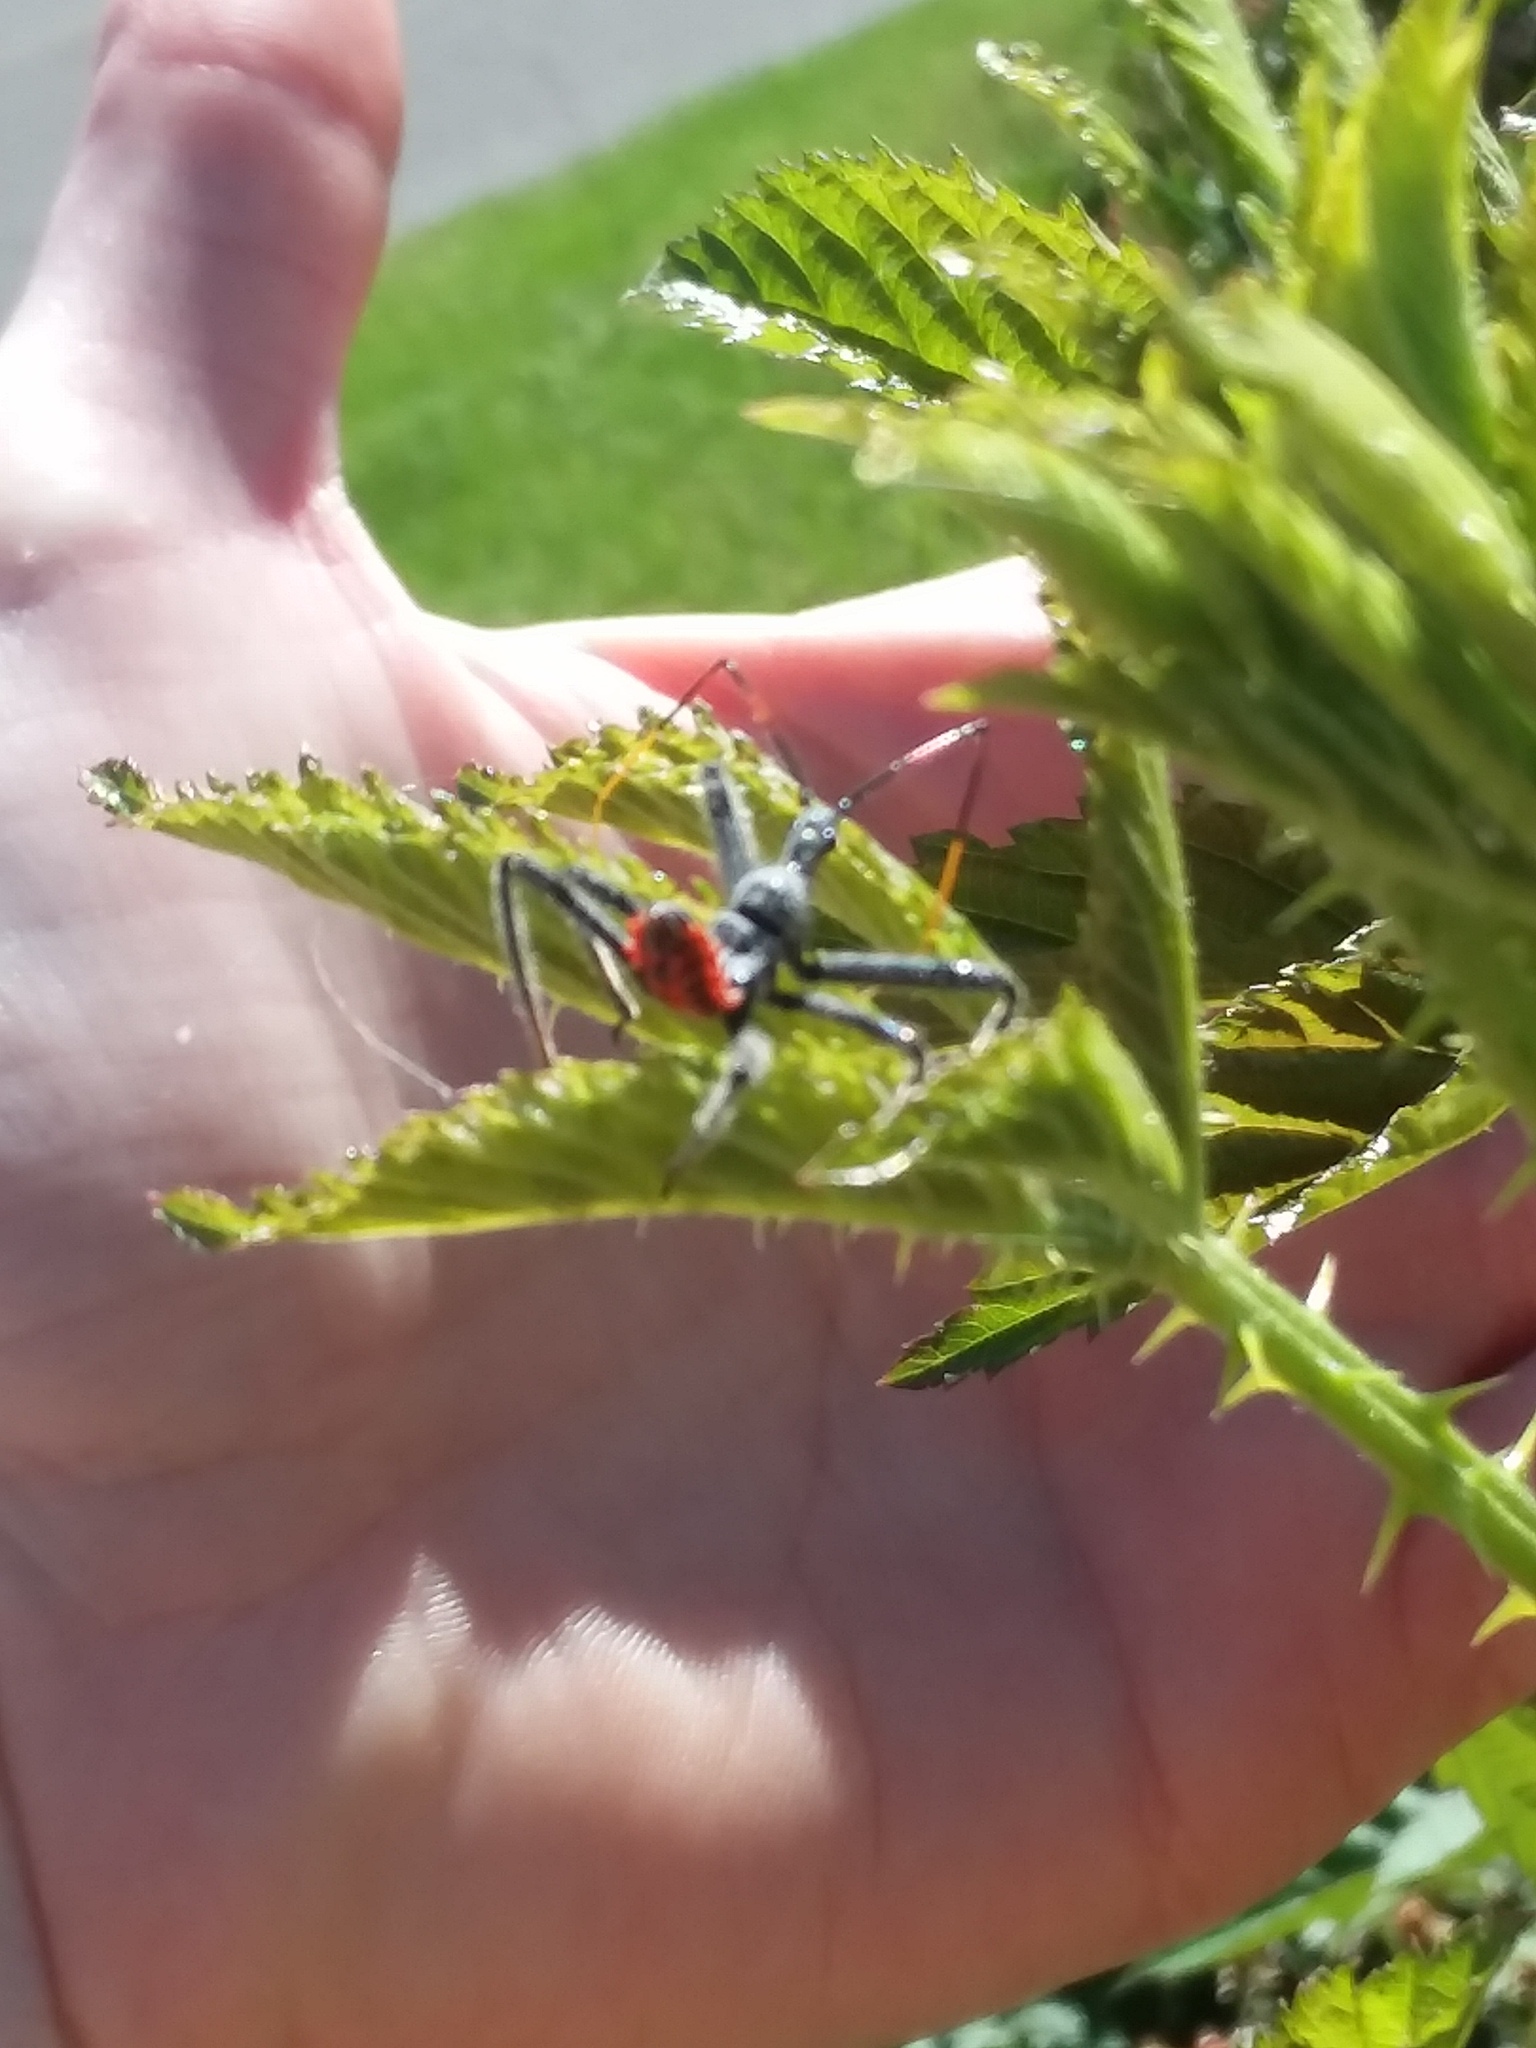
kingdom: Animalia
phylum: Arthropoda
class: Insecta
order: Hemiptera
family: Reduviidae
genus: Arilus
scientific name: Arilus cristatus
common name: North american wheel bug
